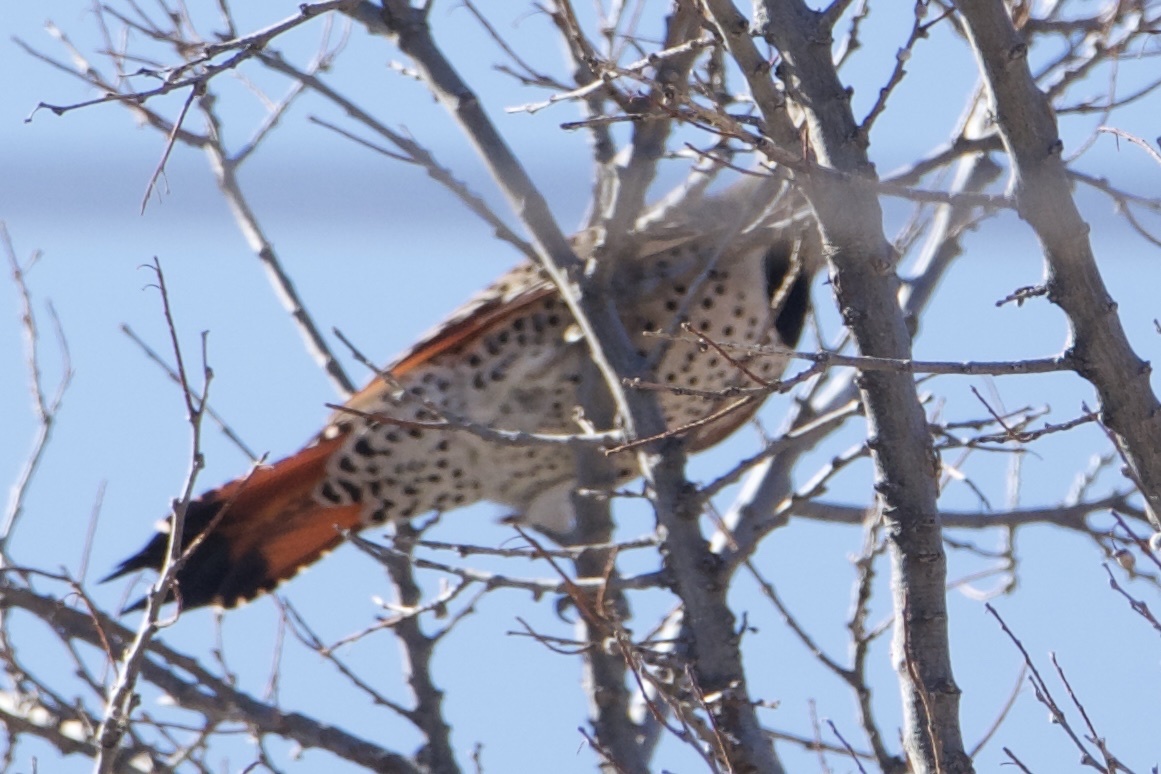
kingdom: Animalia
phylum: Chordata
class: Aves
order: Piciformes
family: Picidae
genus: Colaptes
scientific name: Colaptes auratus
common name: Northern flicker
